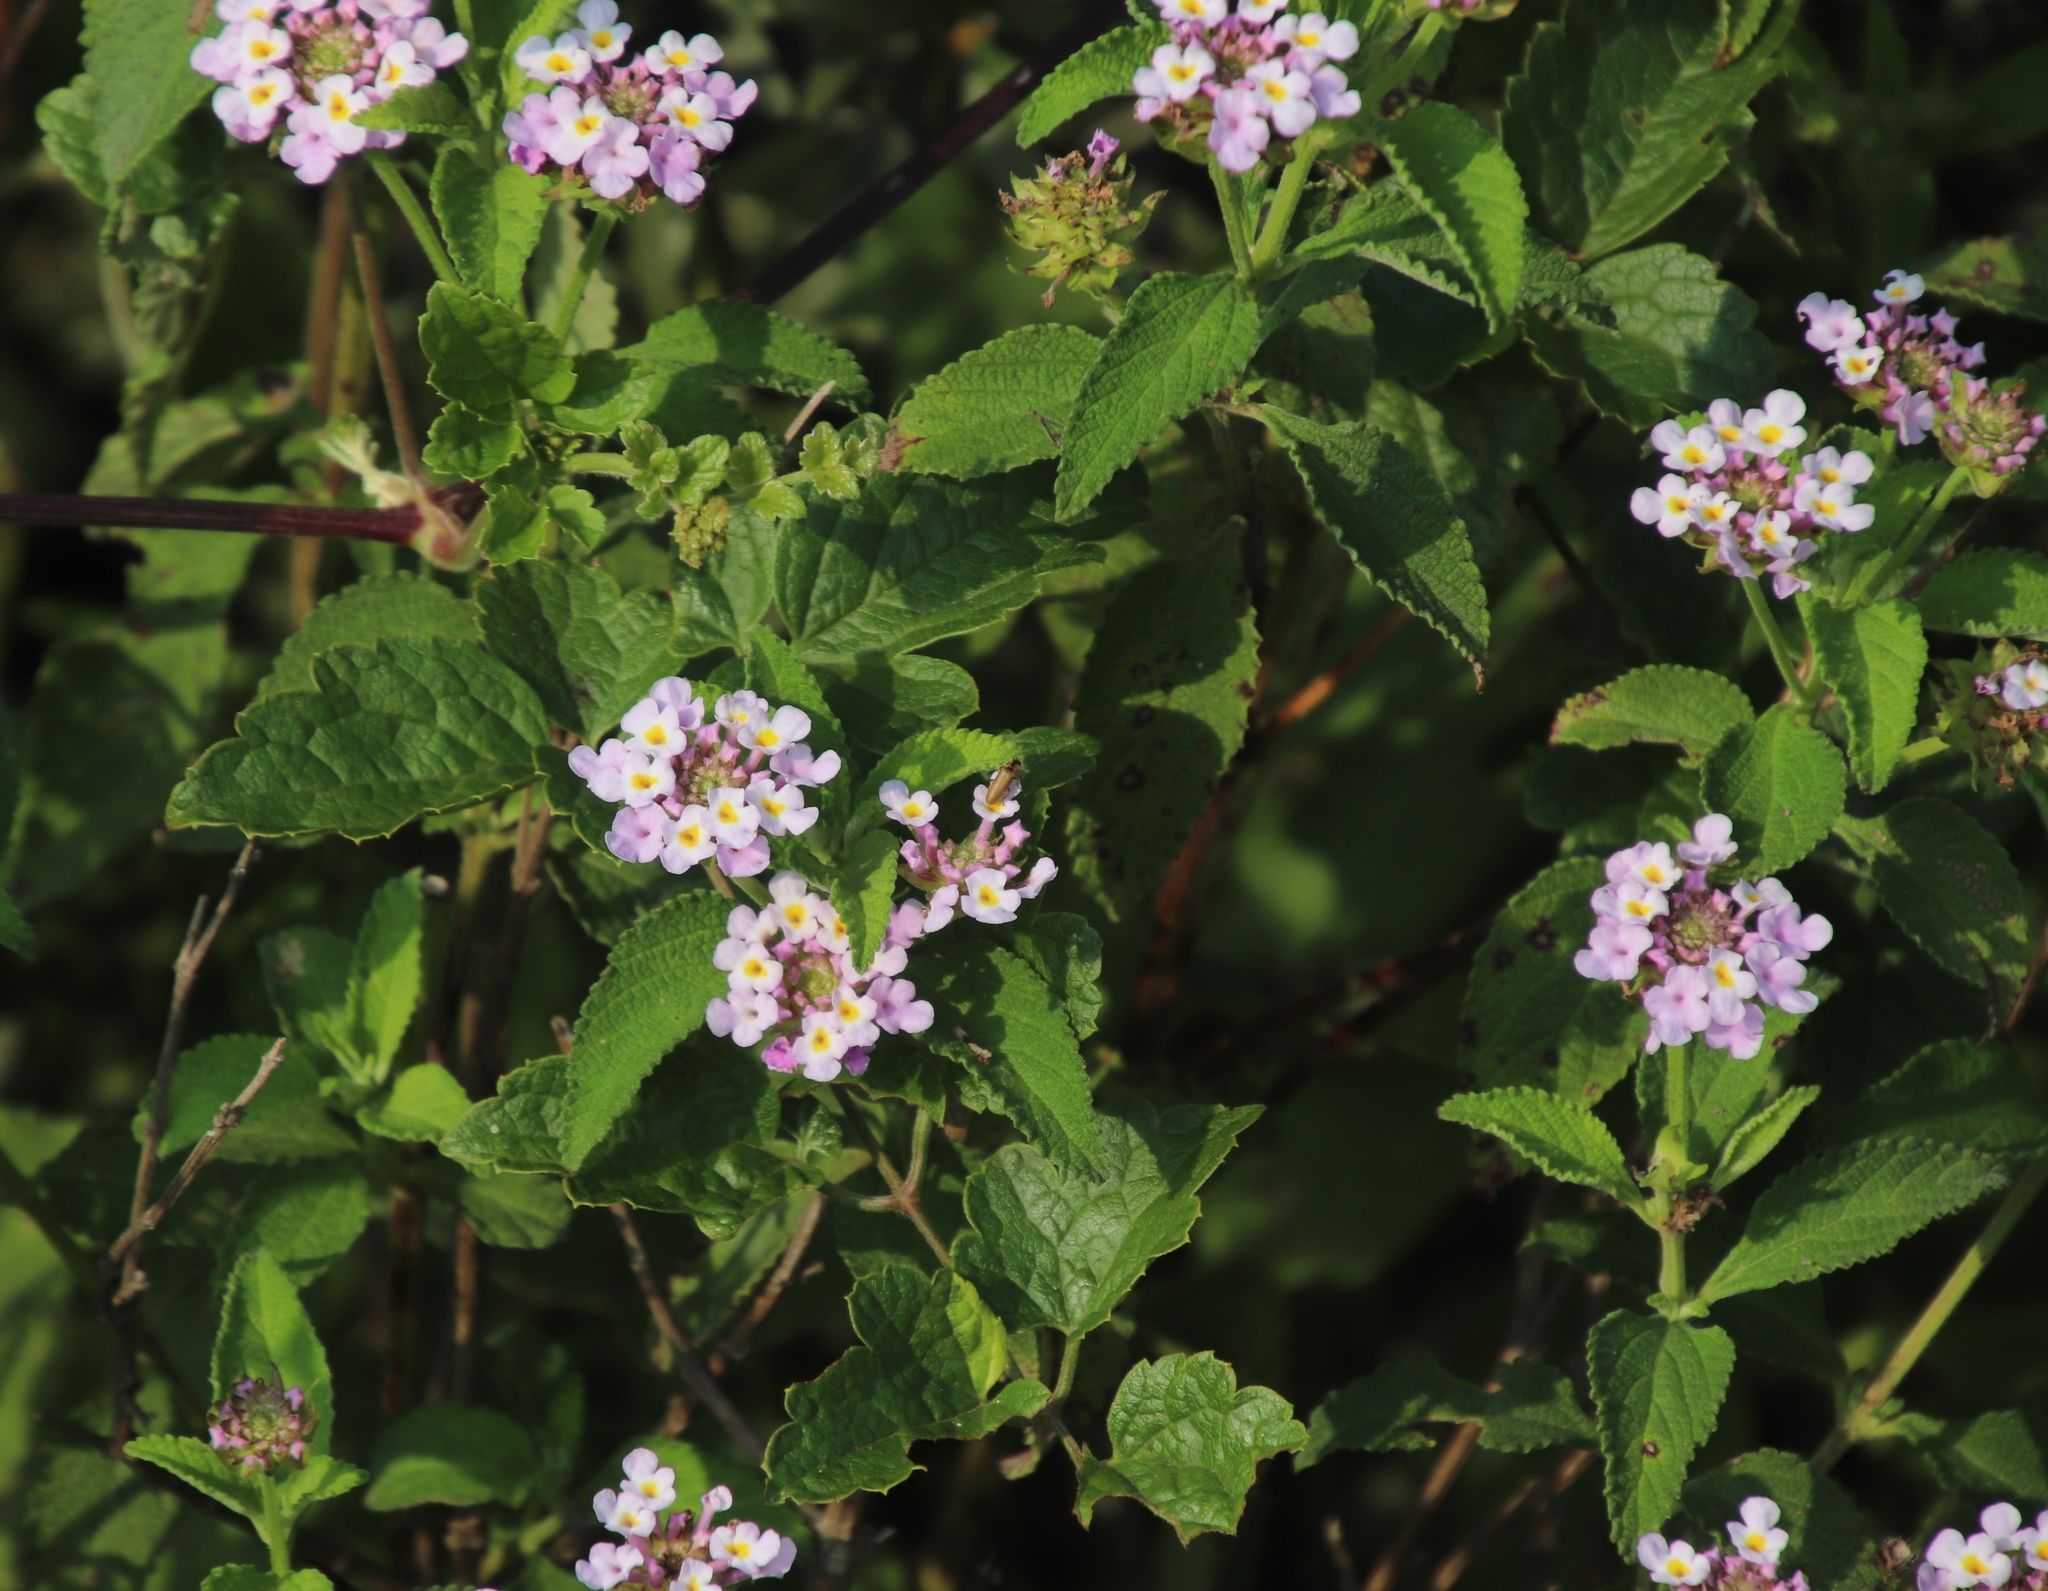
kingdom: Plantae
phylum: Tracheophyta
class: Magnoliopsida
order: Lamiales
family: Verbenaceae
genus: Lantana
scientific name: Lantana camara
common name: Lantana
